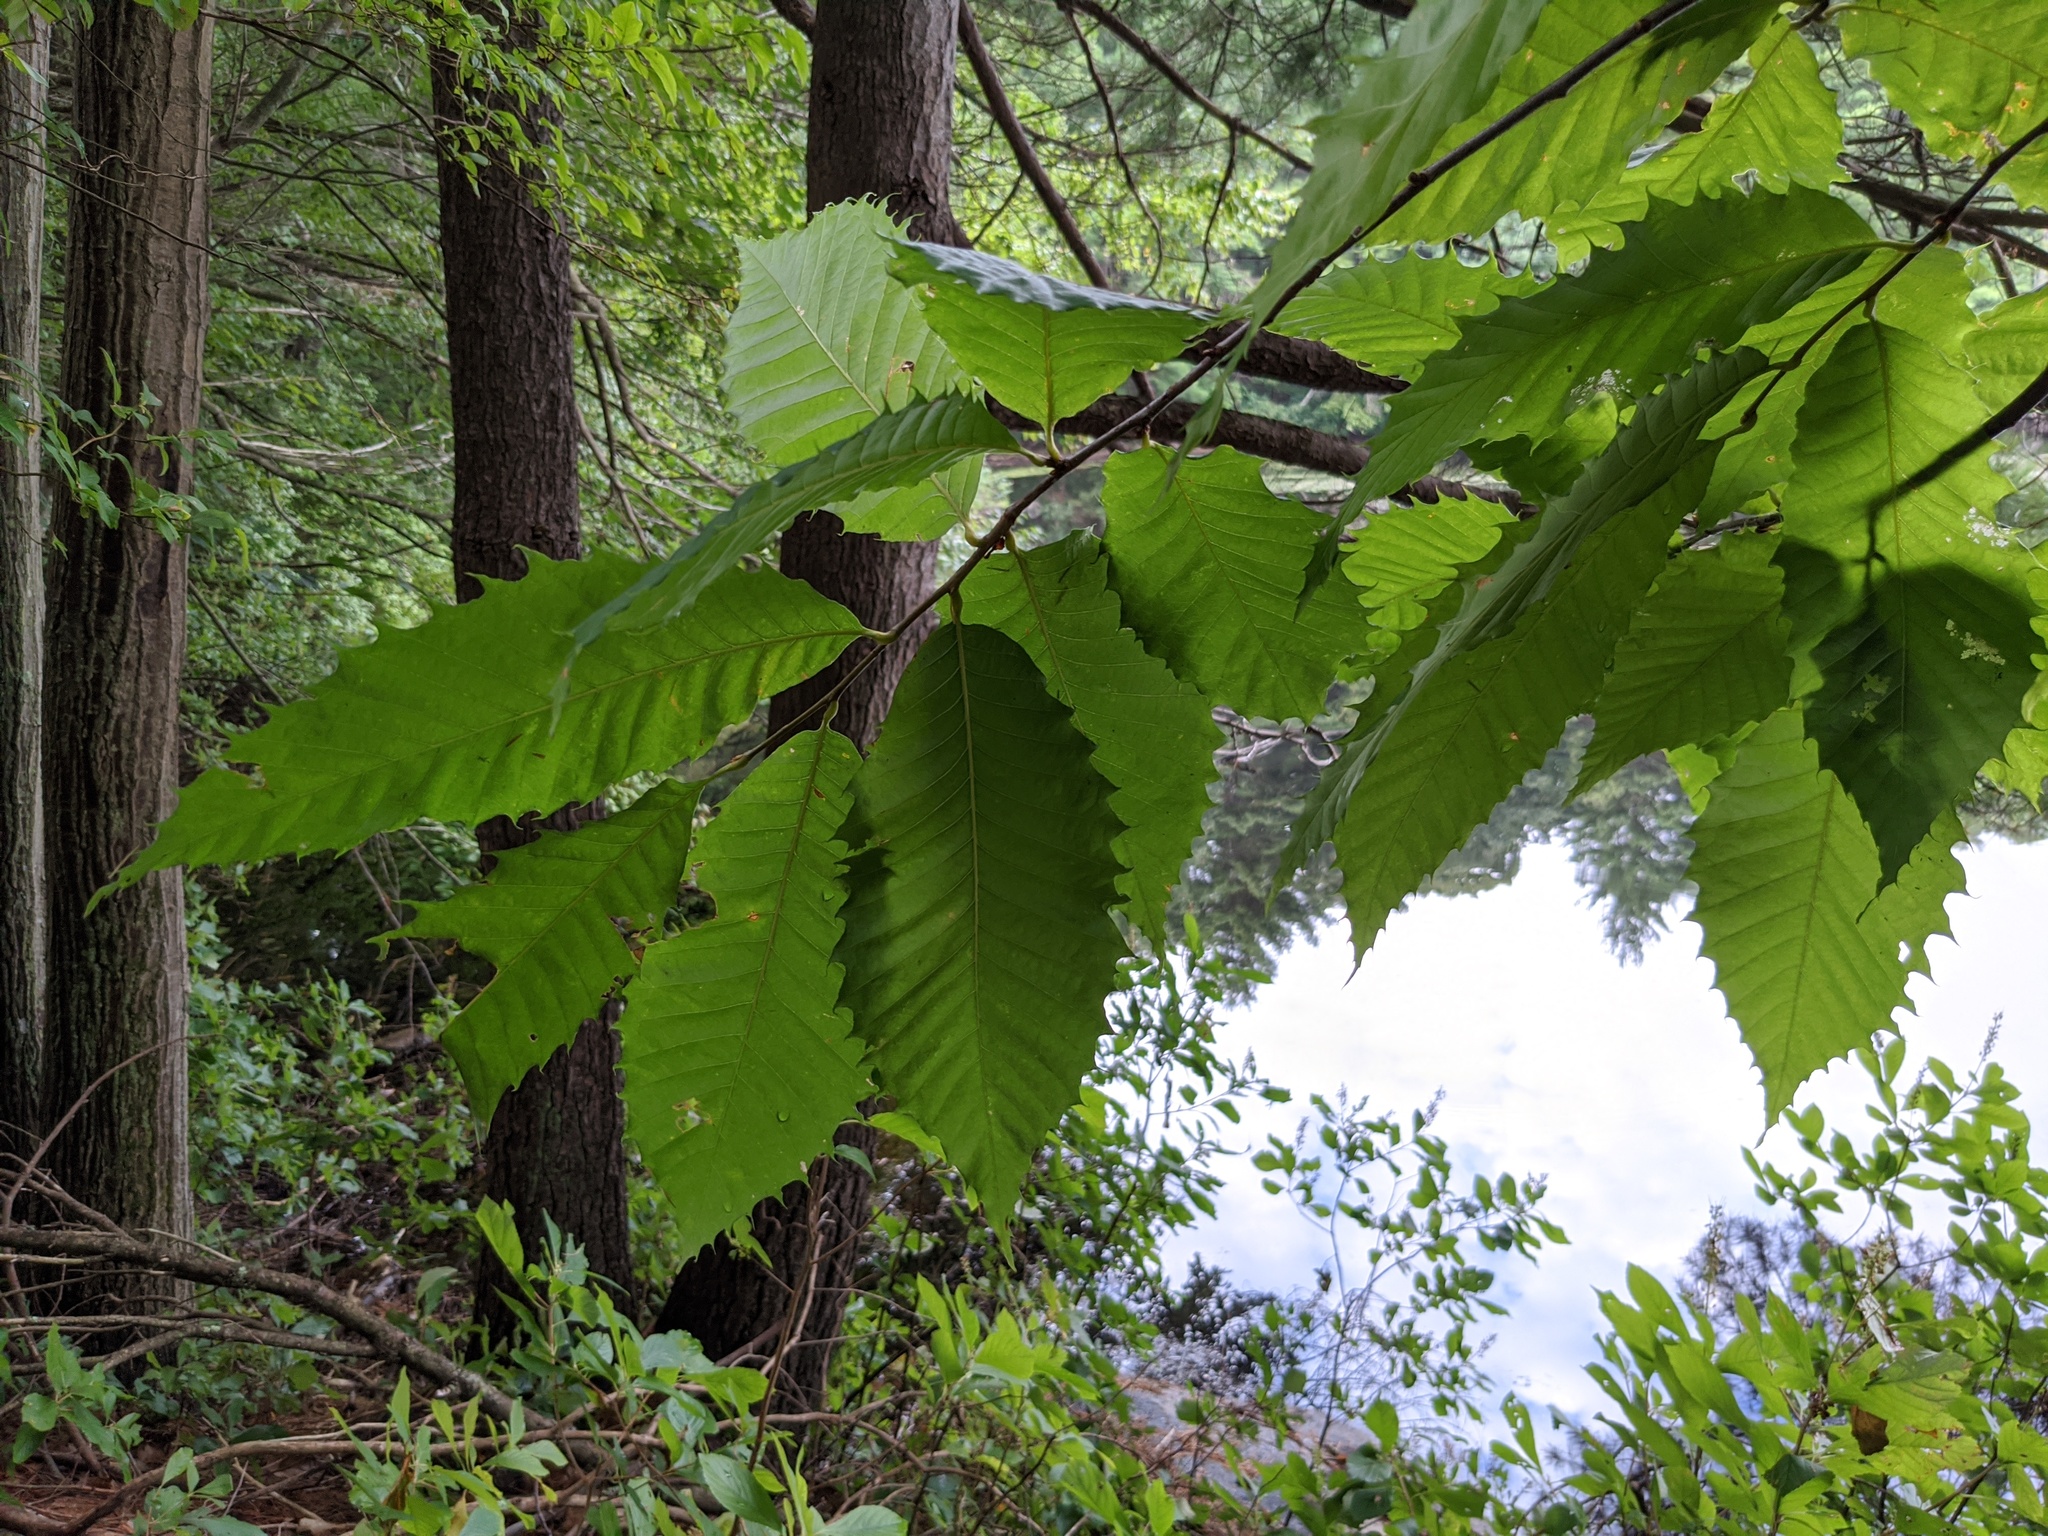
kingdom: Plantae
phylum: Tracheophyta
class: Magnoliopsida
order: Fagales
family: Fagaceae
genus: Castanea
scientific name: Castanea dentata
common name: American chestnut
